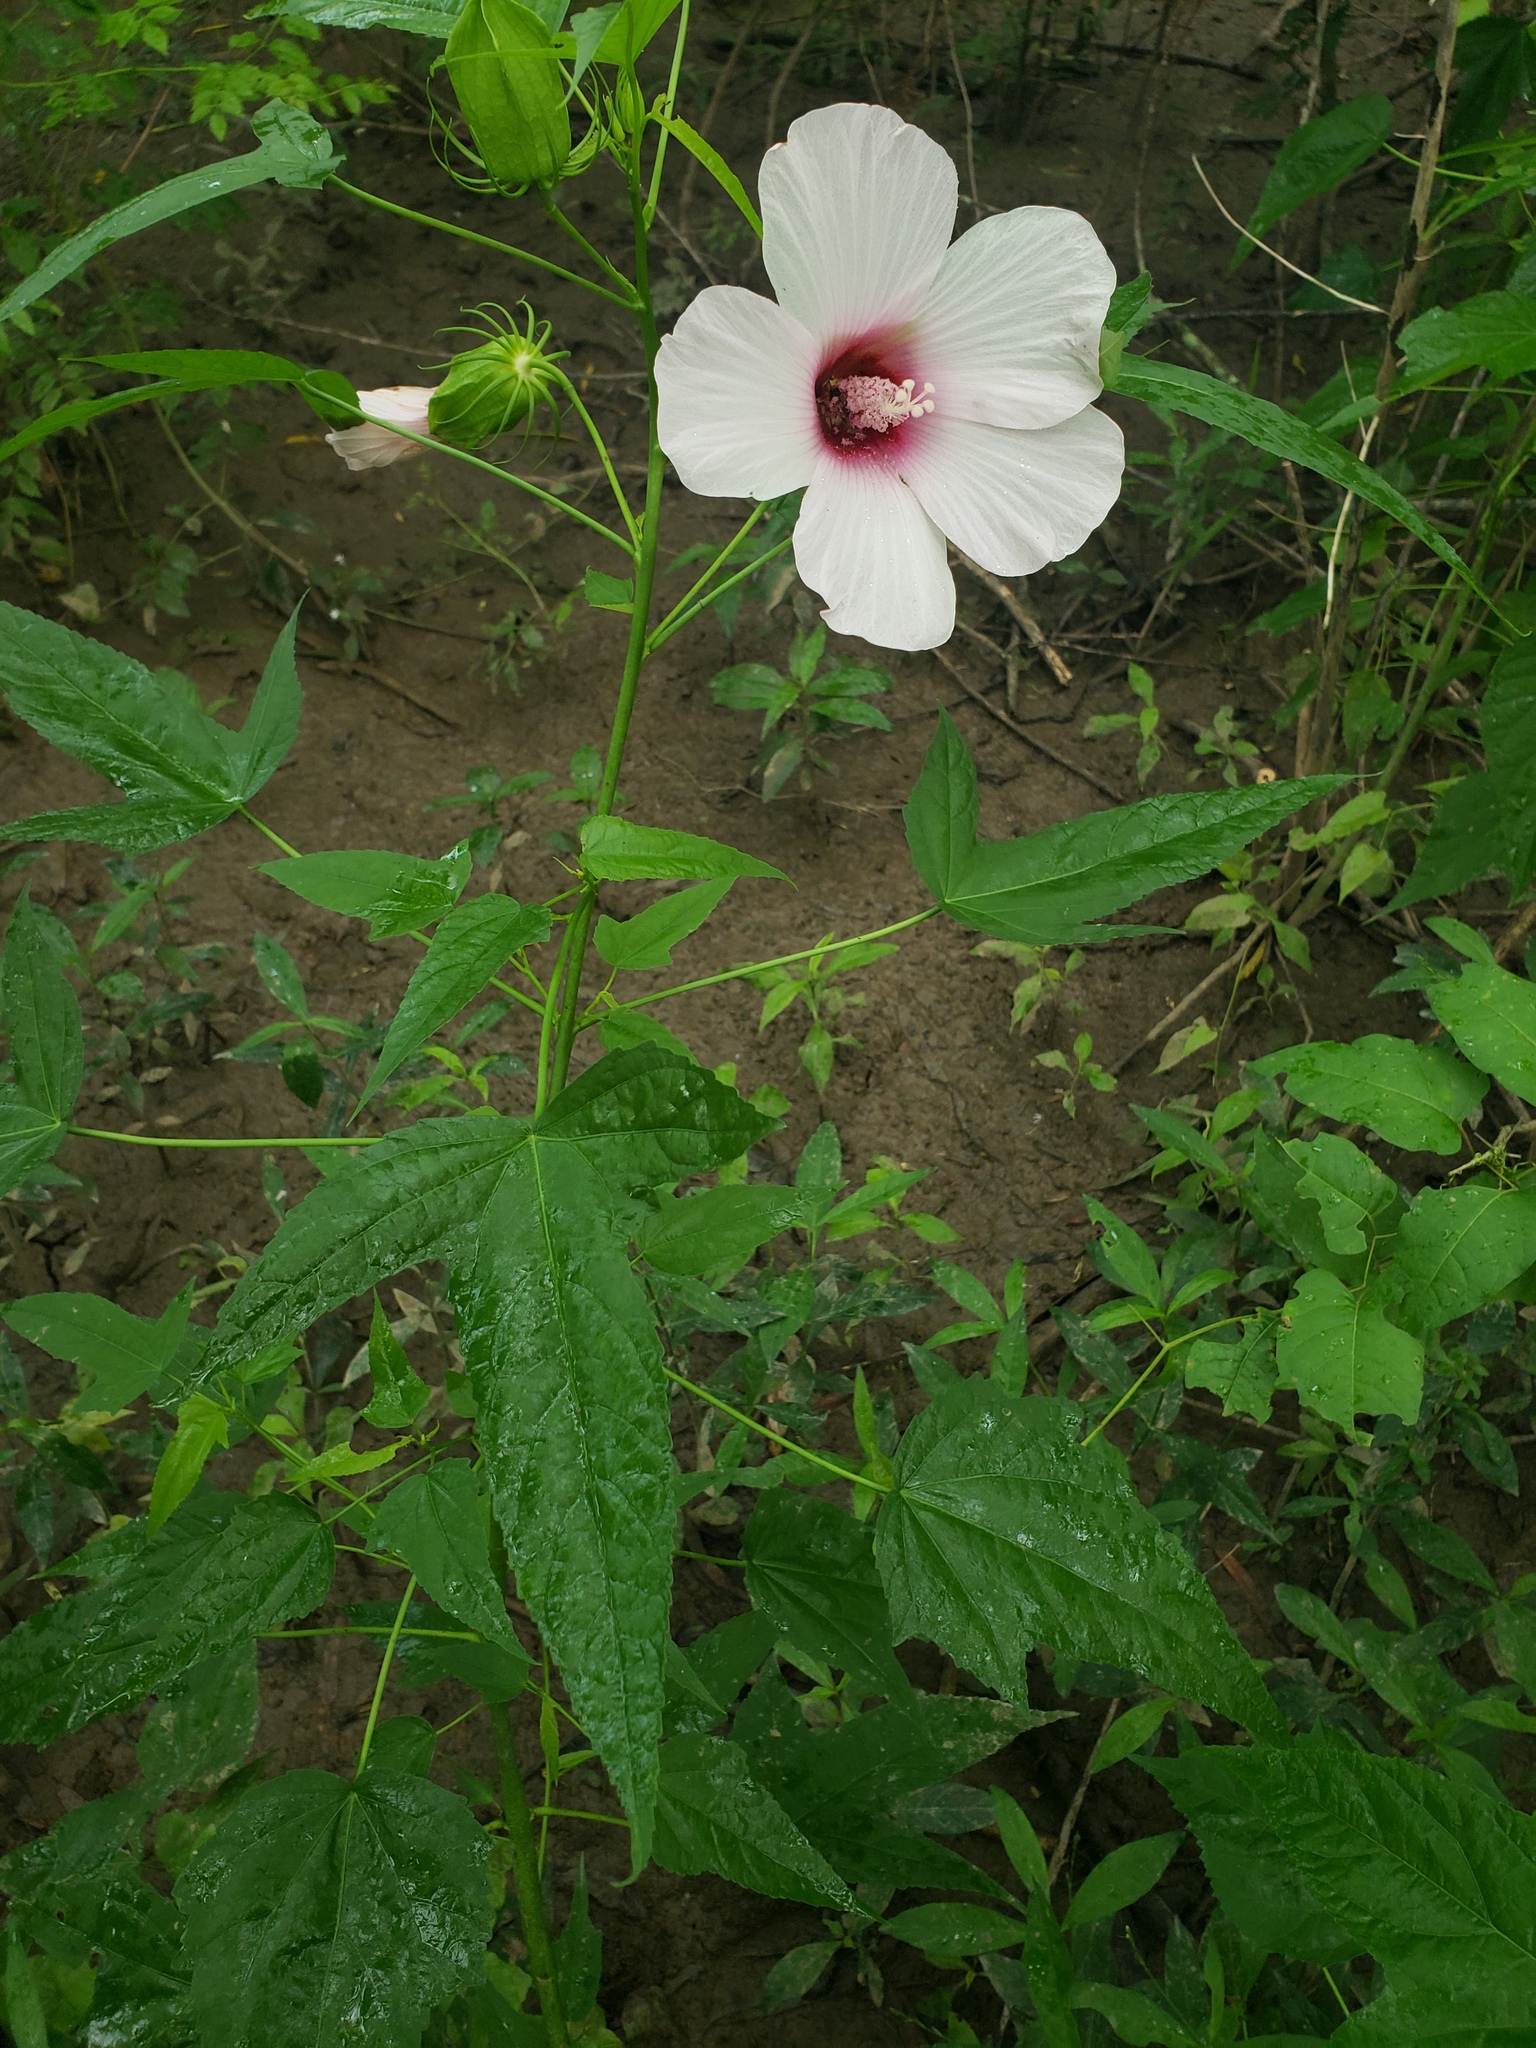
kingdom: Plantae
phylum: Tracheophyta
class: Magnoliopsida
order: Malvales
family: Malvaceae
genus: Hibiscus
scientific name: Hibiscus laevis
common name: Scarlet rose-mallow
